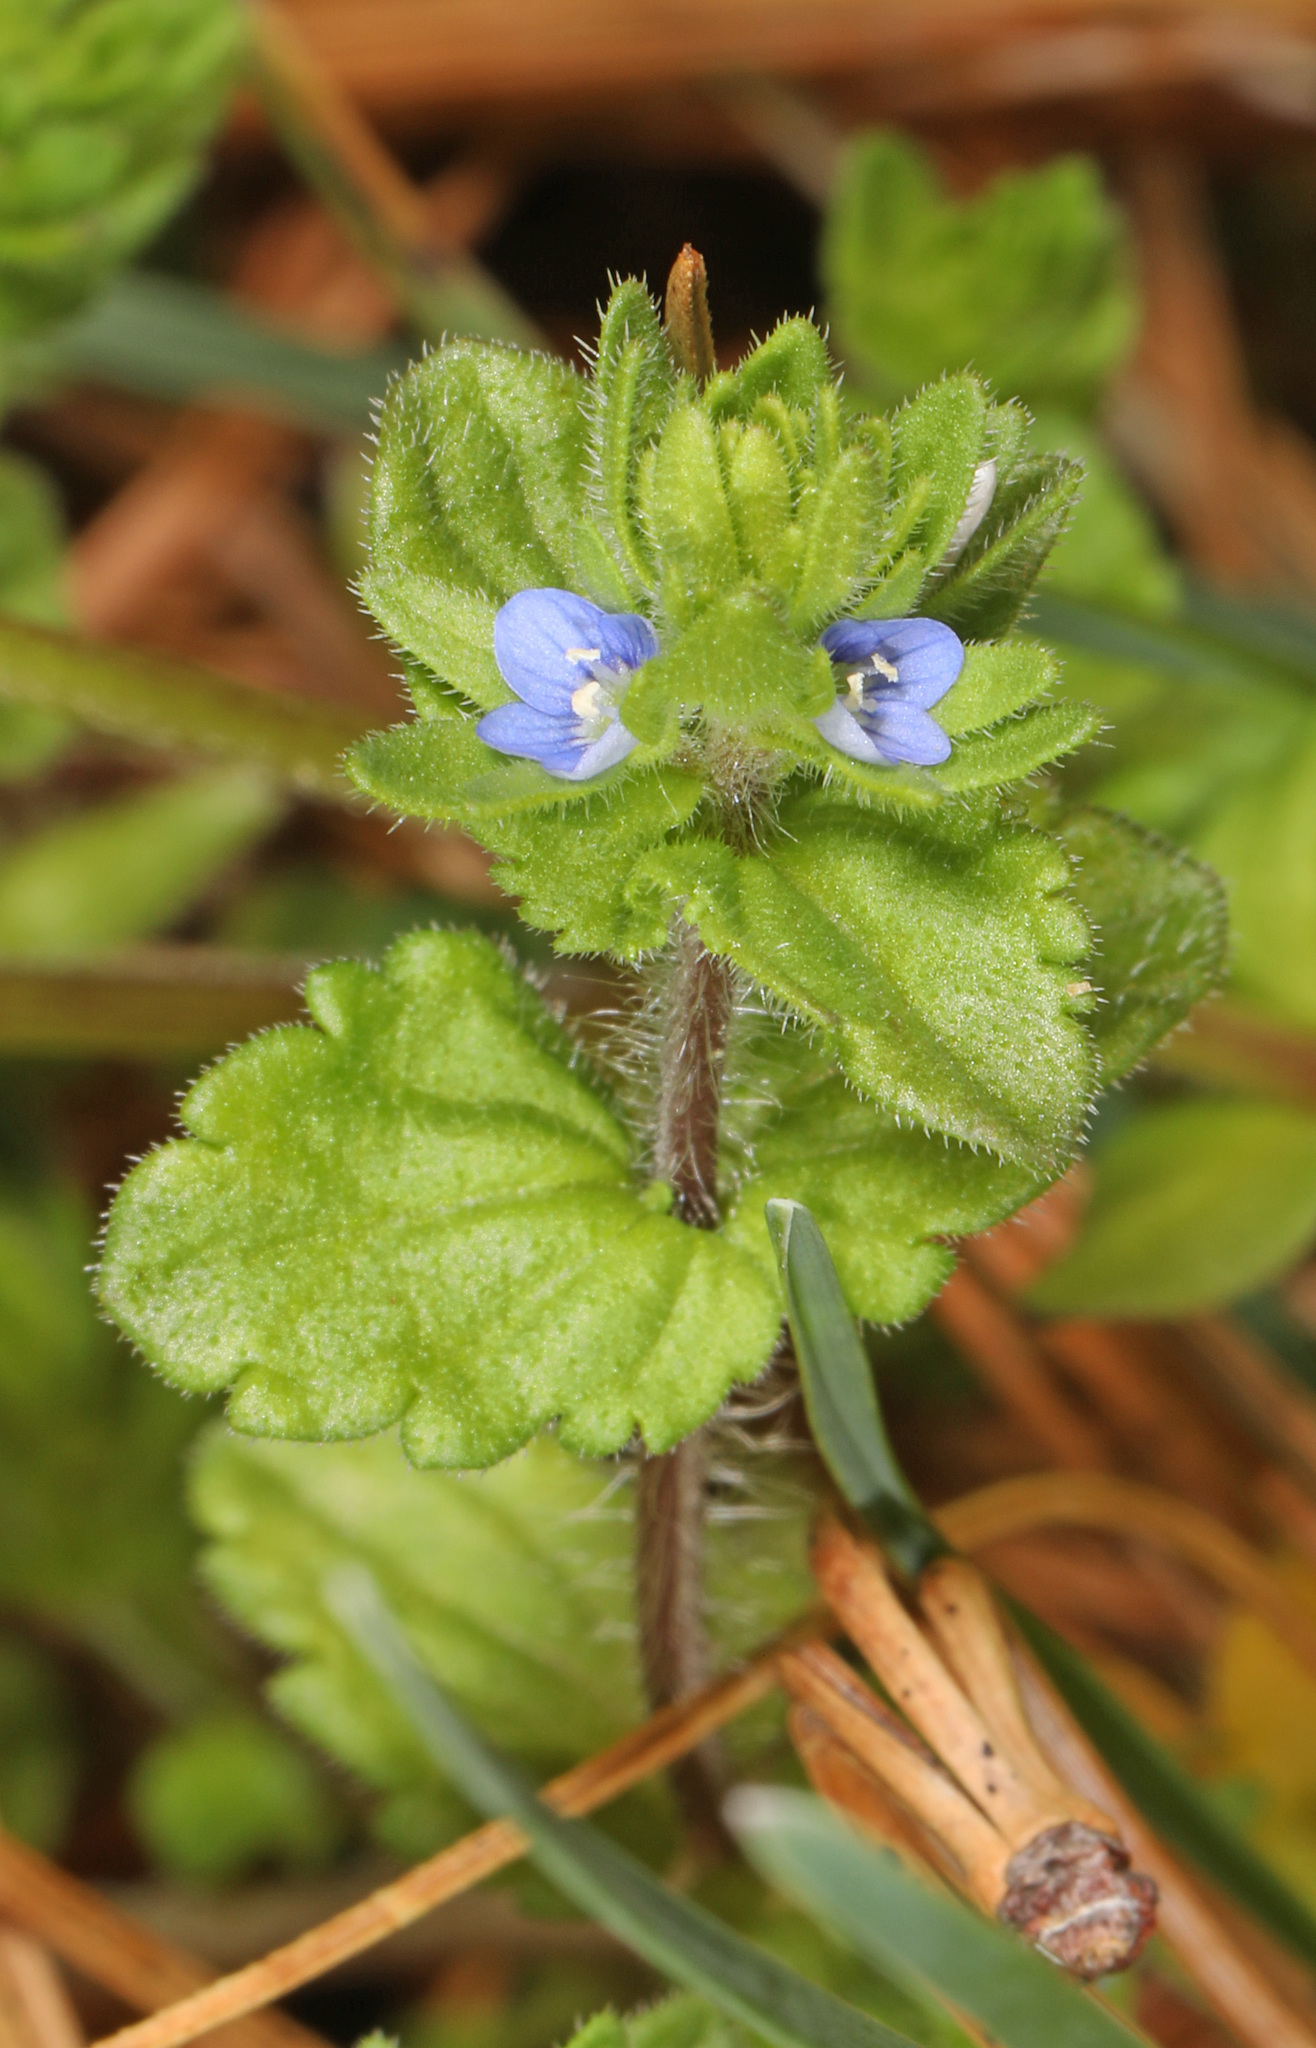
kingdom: Plantae
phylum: Tracheophyta
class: Magnoliopsida
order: Lamiales
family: Plantaginaceae
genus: Veronica
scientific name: Veronica arvensis
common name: Corn speedwell
